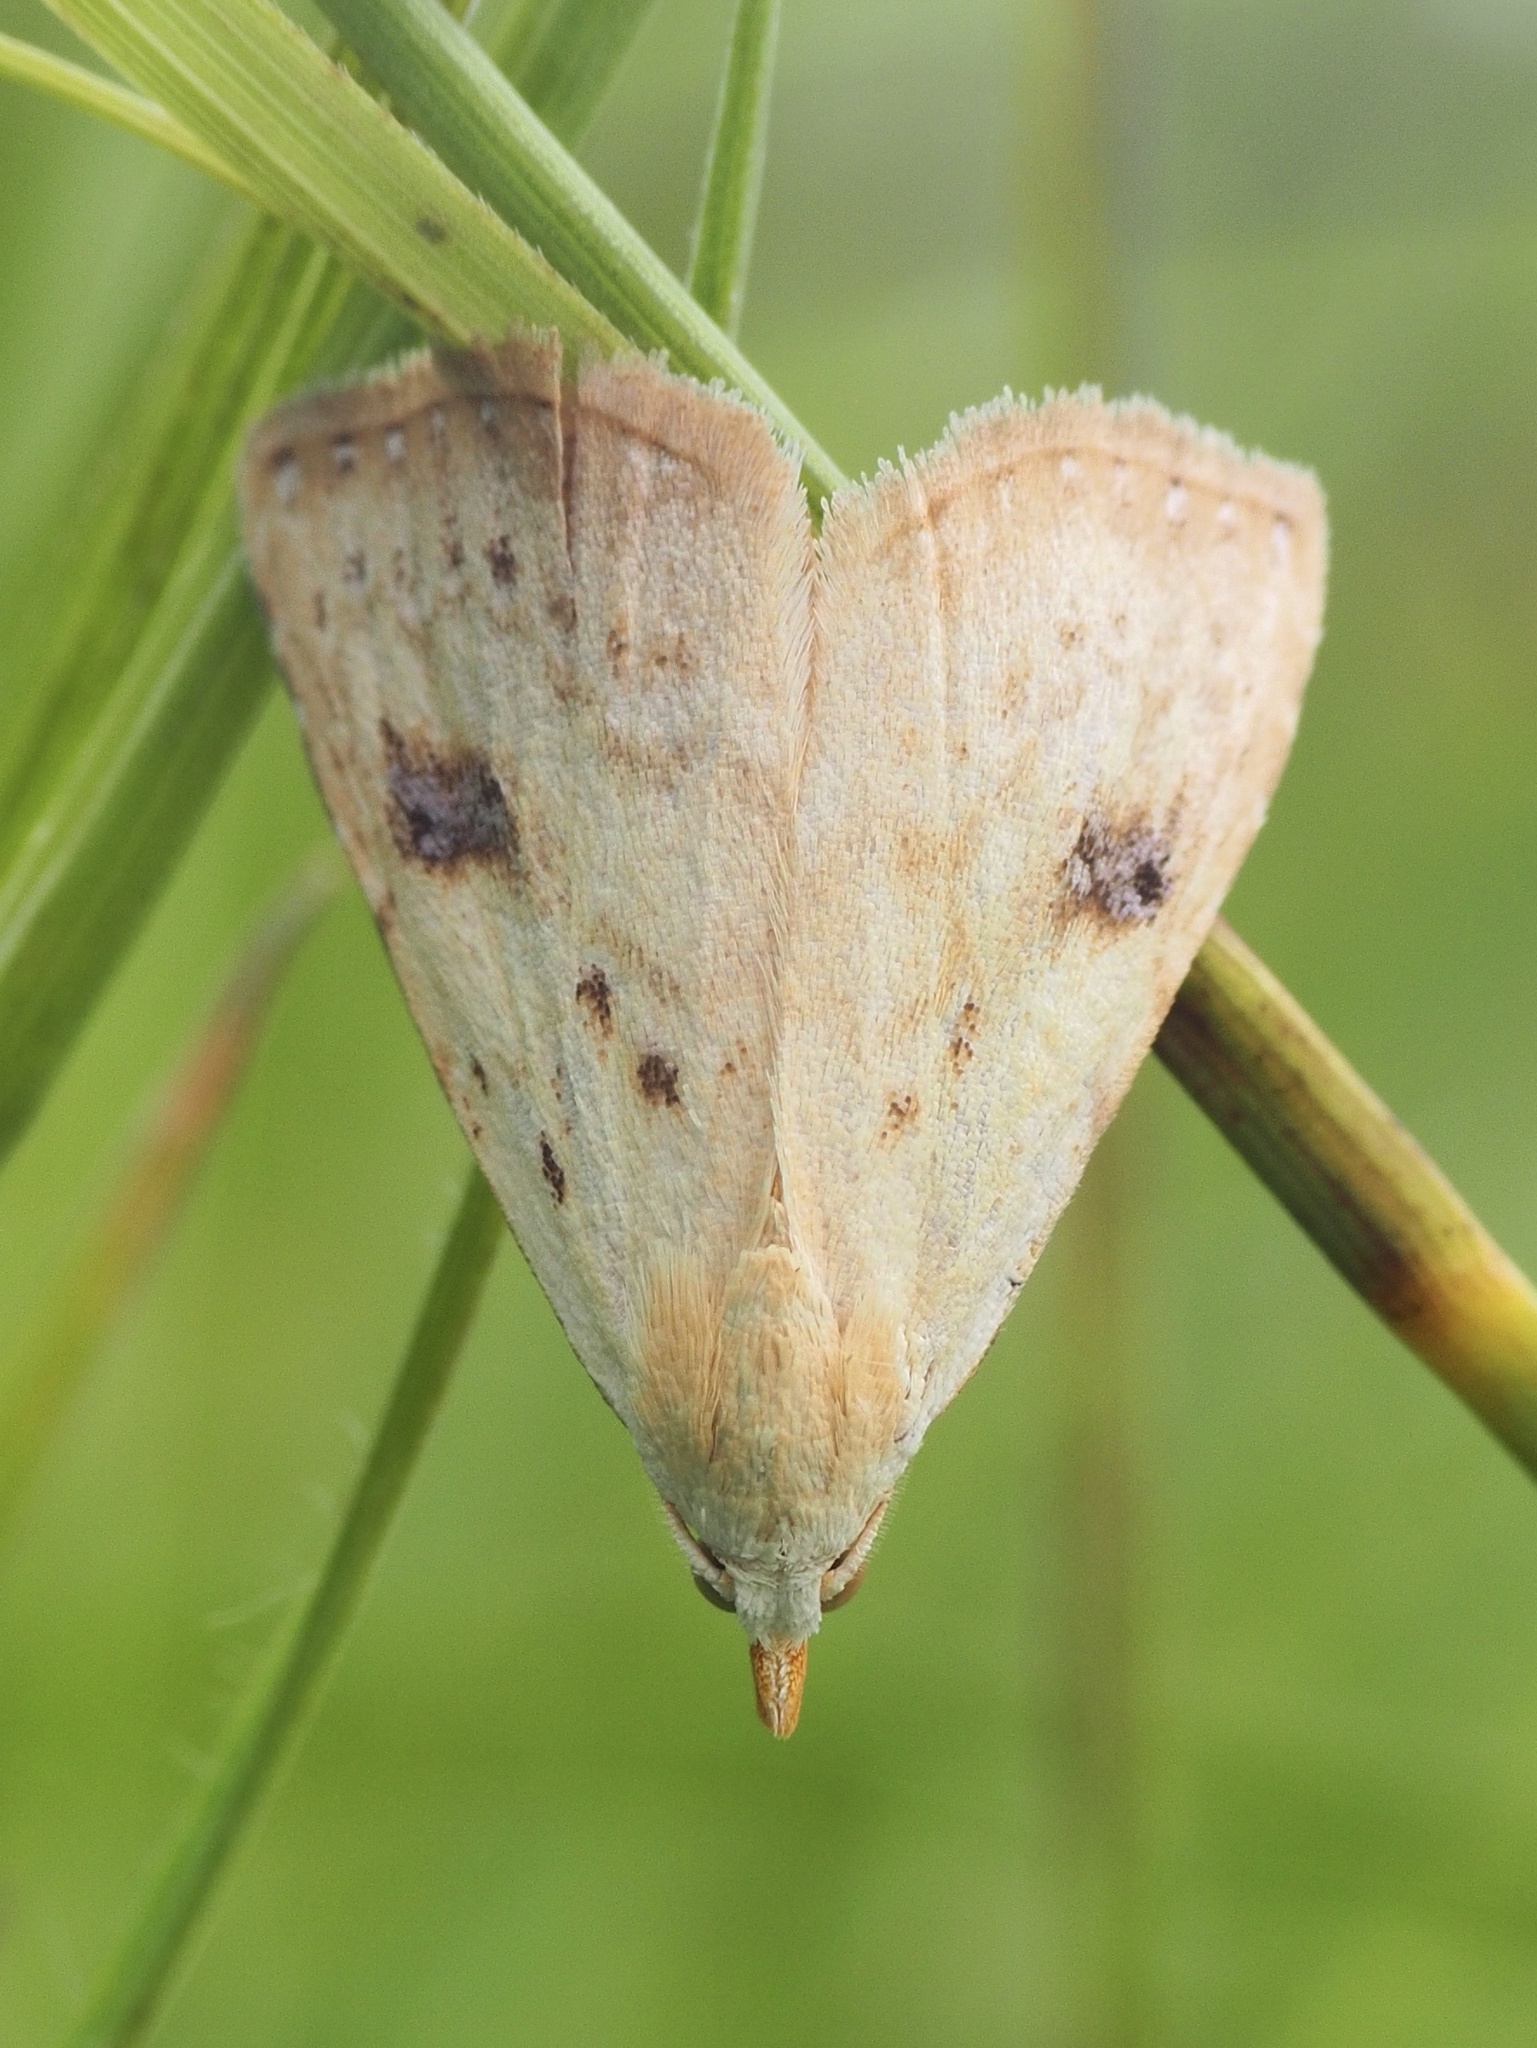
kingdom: Animalia
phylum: Arthropoda
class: Insecta
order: Lepidoptera
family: Erebidae
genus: Rivula
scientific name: Rivula sericealis
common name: Straw dot
